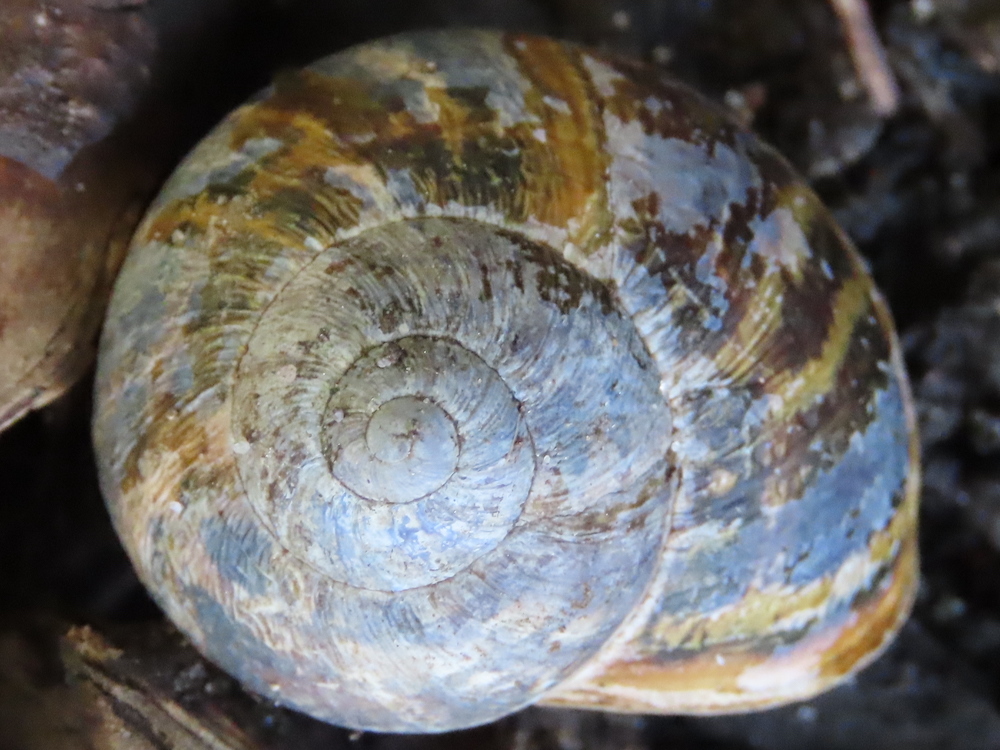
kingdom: Animalia
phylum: Mollusca
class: Gastropoda
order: Stylommatophora
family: Helicidae
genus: Cornu
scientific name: Cornu aspersum
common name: Brown garden snail
